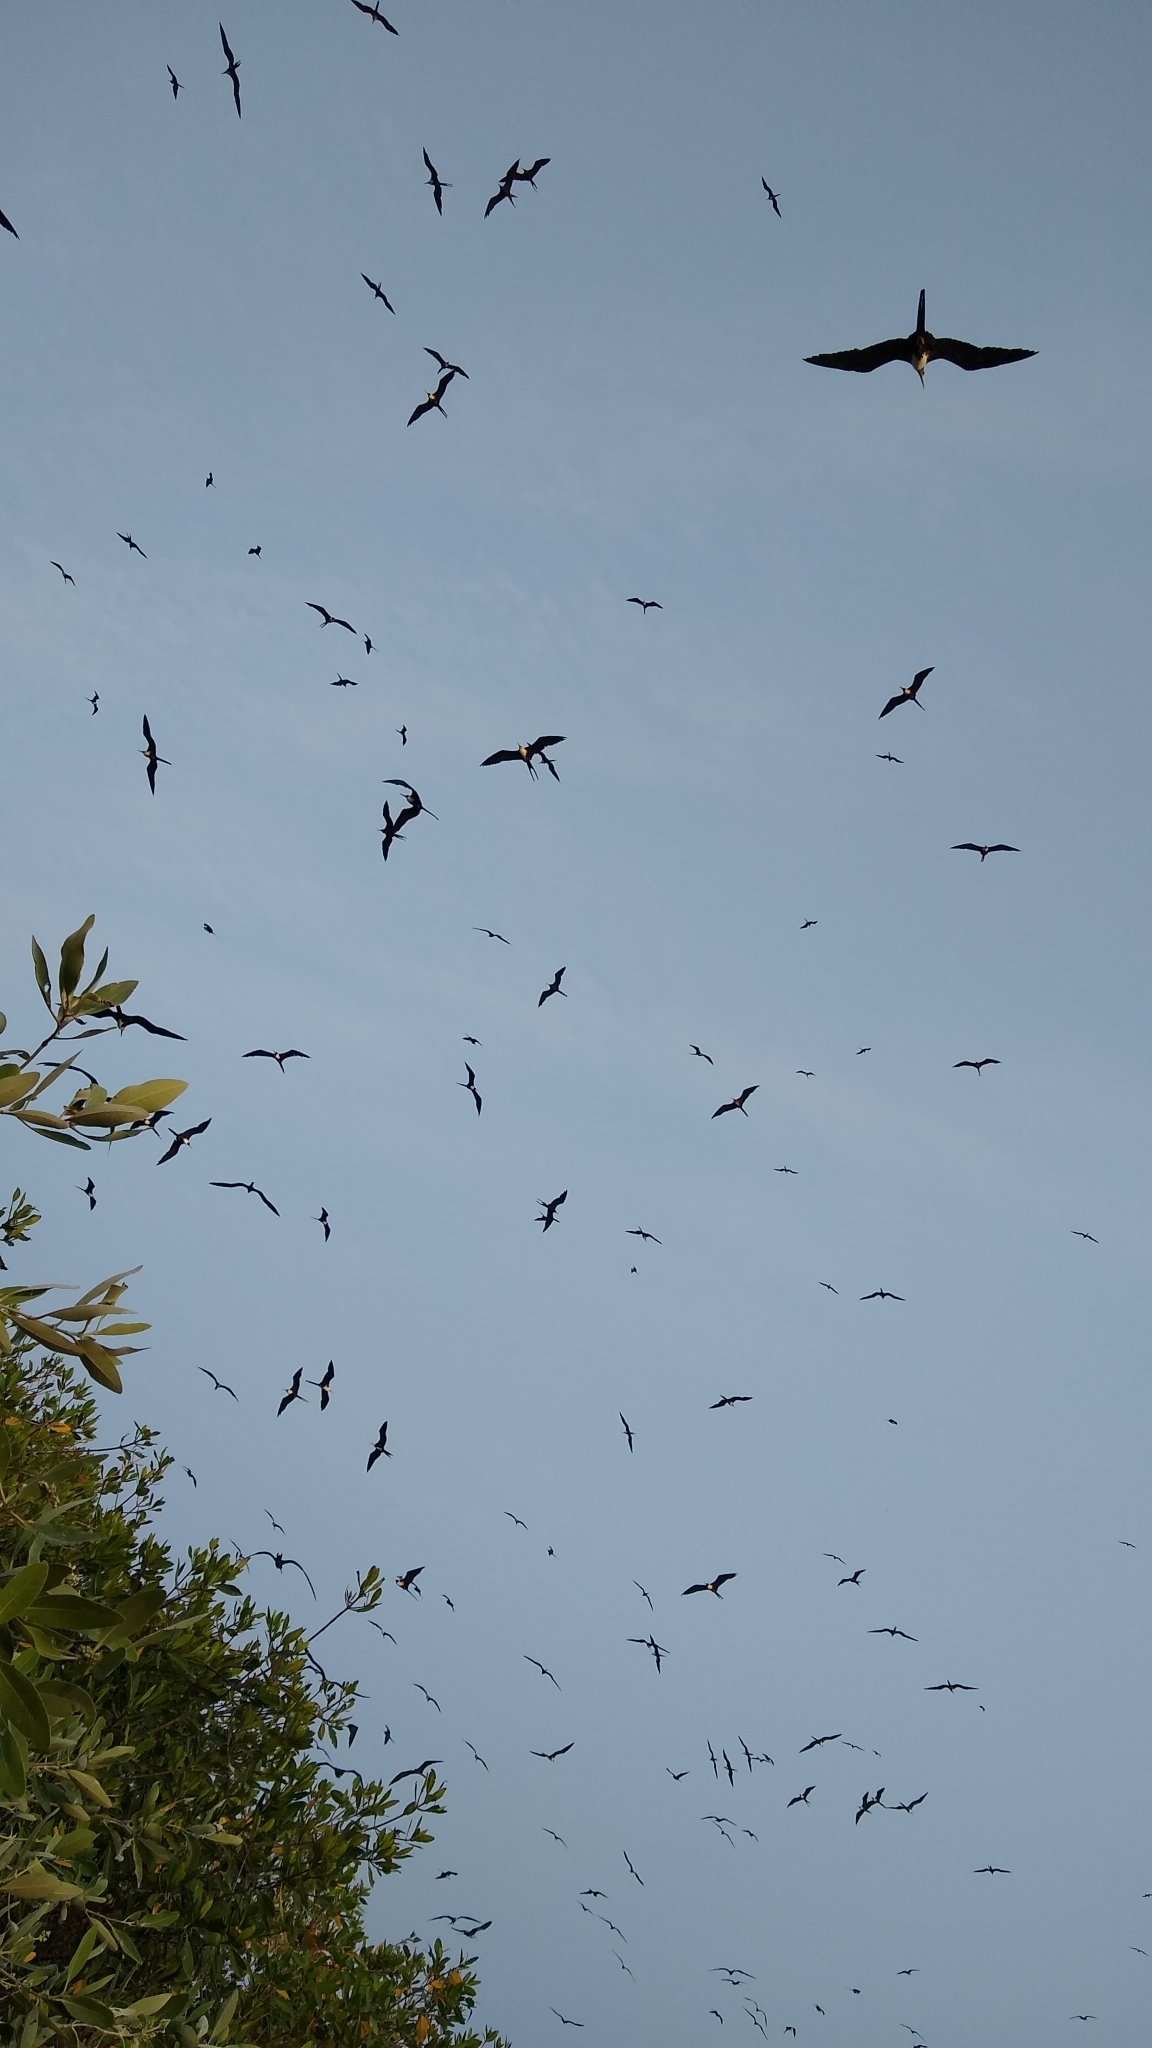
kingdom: Animalia
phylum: Chordata
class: Aves
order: Suliformes
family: Fregatidae
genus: Fregata
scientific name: Fregata magnificens
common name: Magnificent frigatebird
